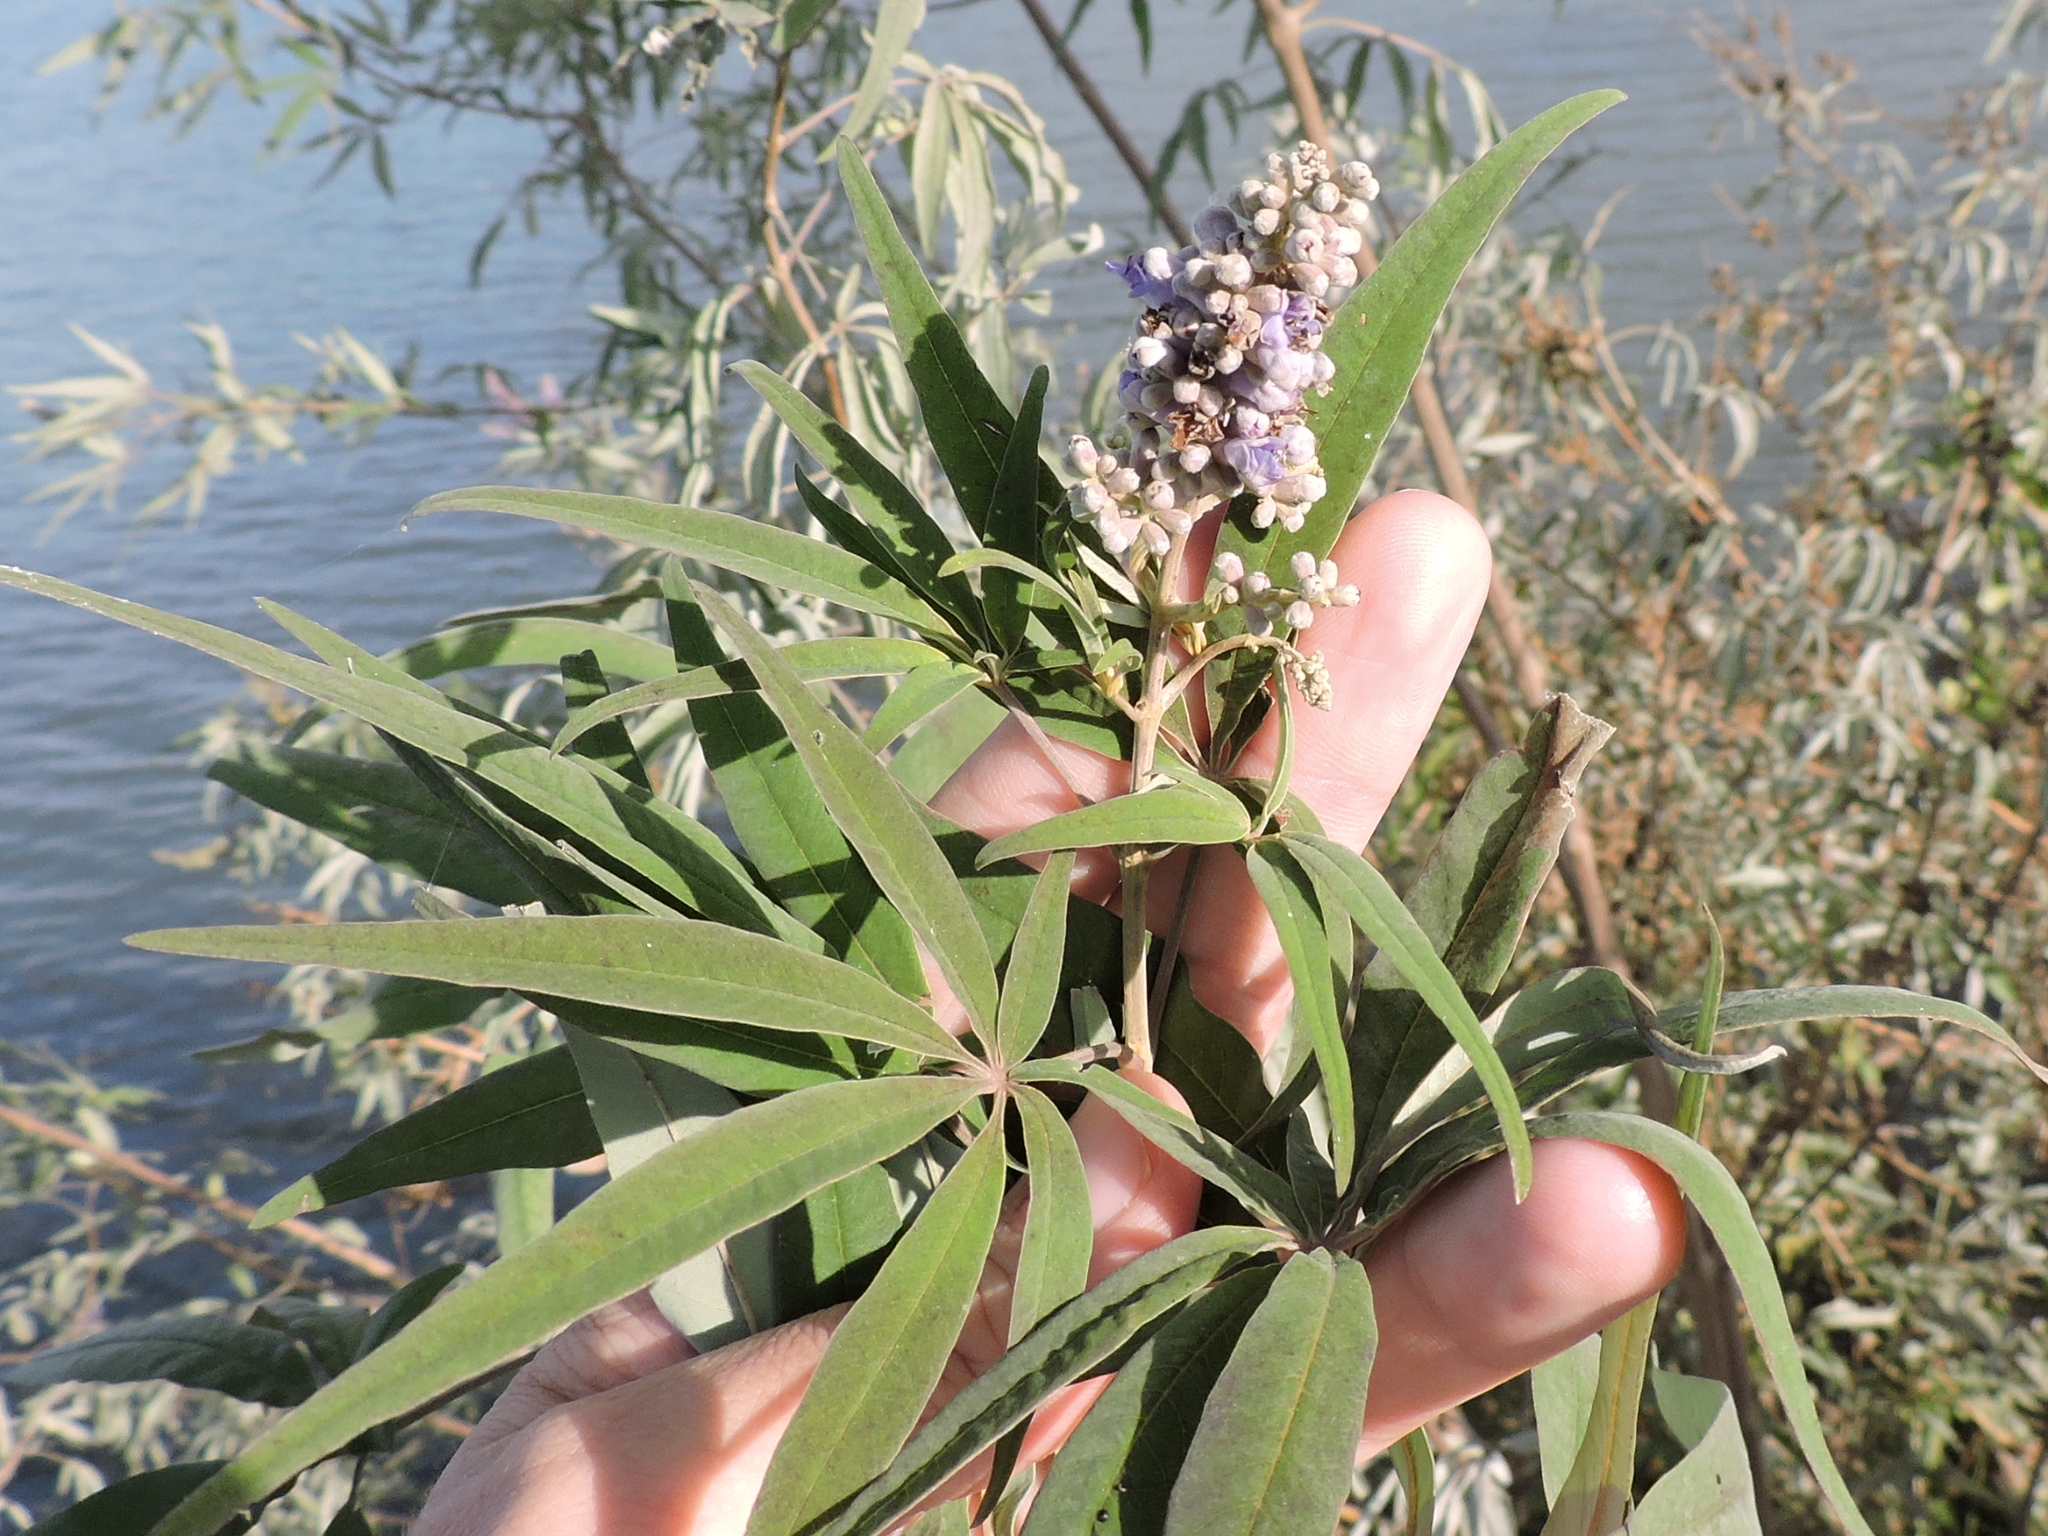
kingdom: Plantae
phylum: Tracheophyta
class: Magnoliopsida
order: Lamiales
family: Lamiaceae
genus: Vitex
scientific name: Vitex agnus-castus
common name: Chasteberry
